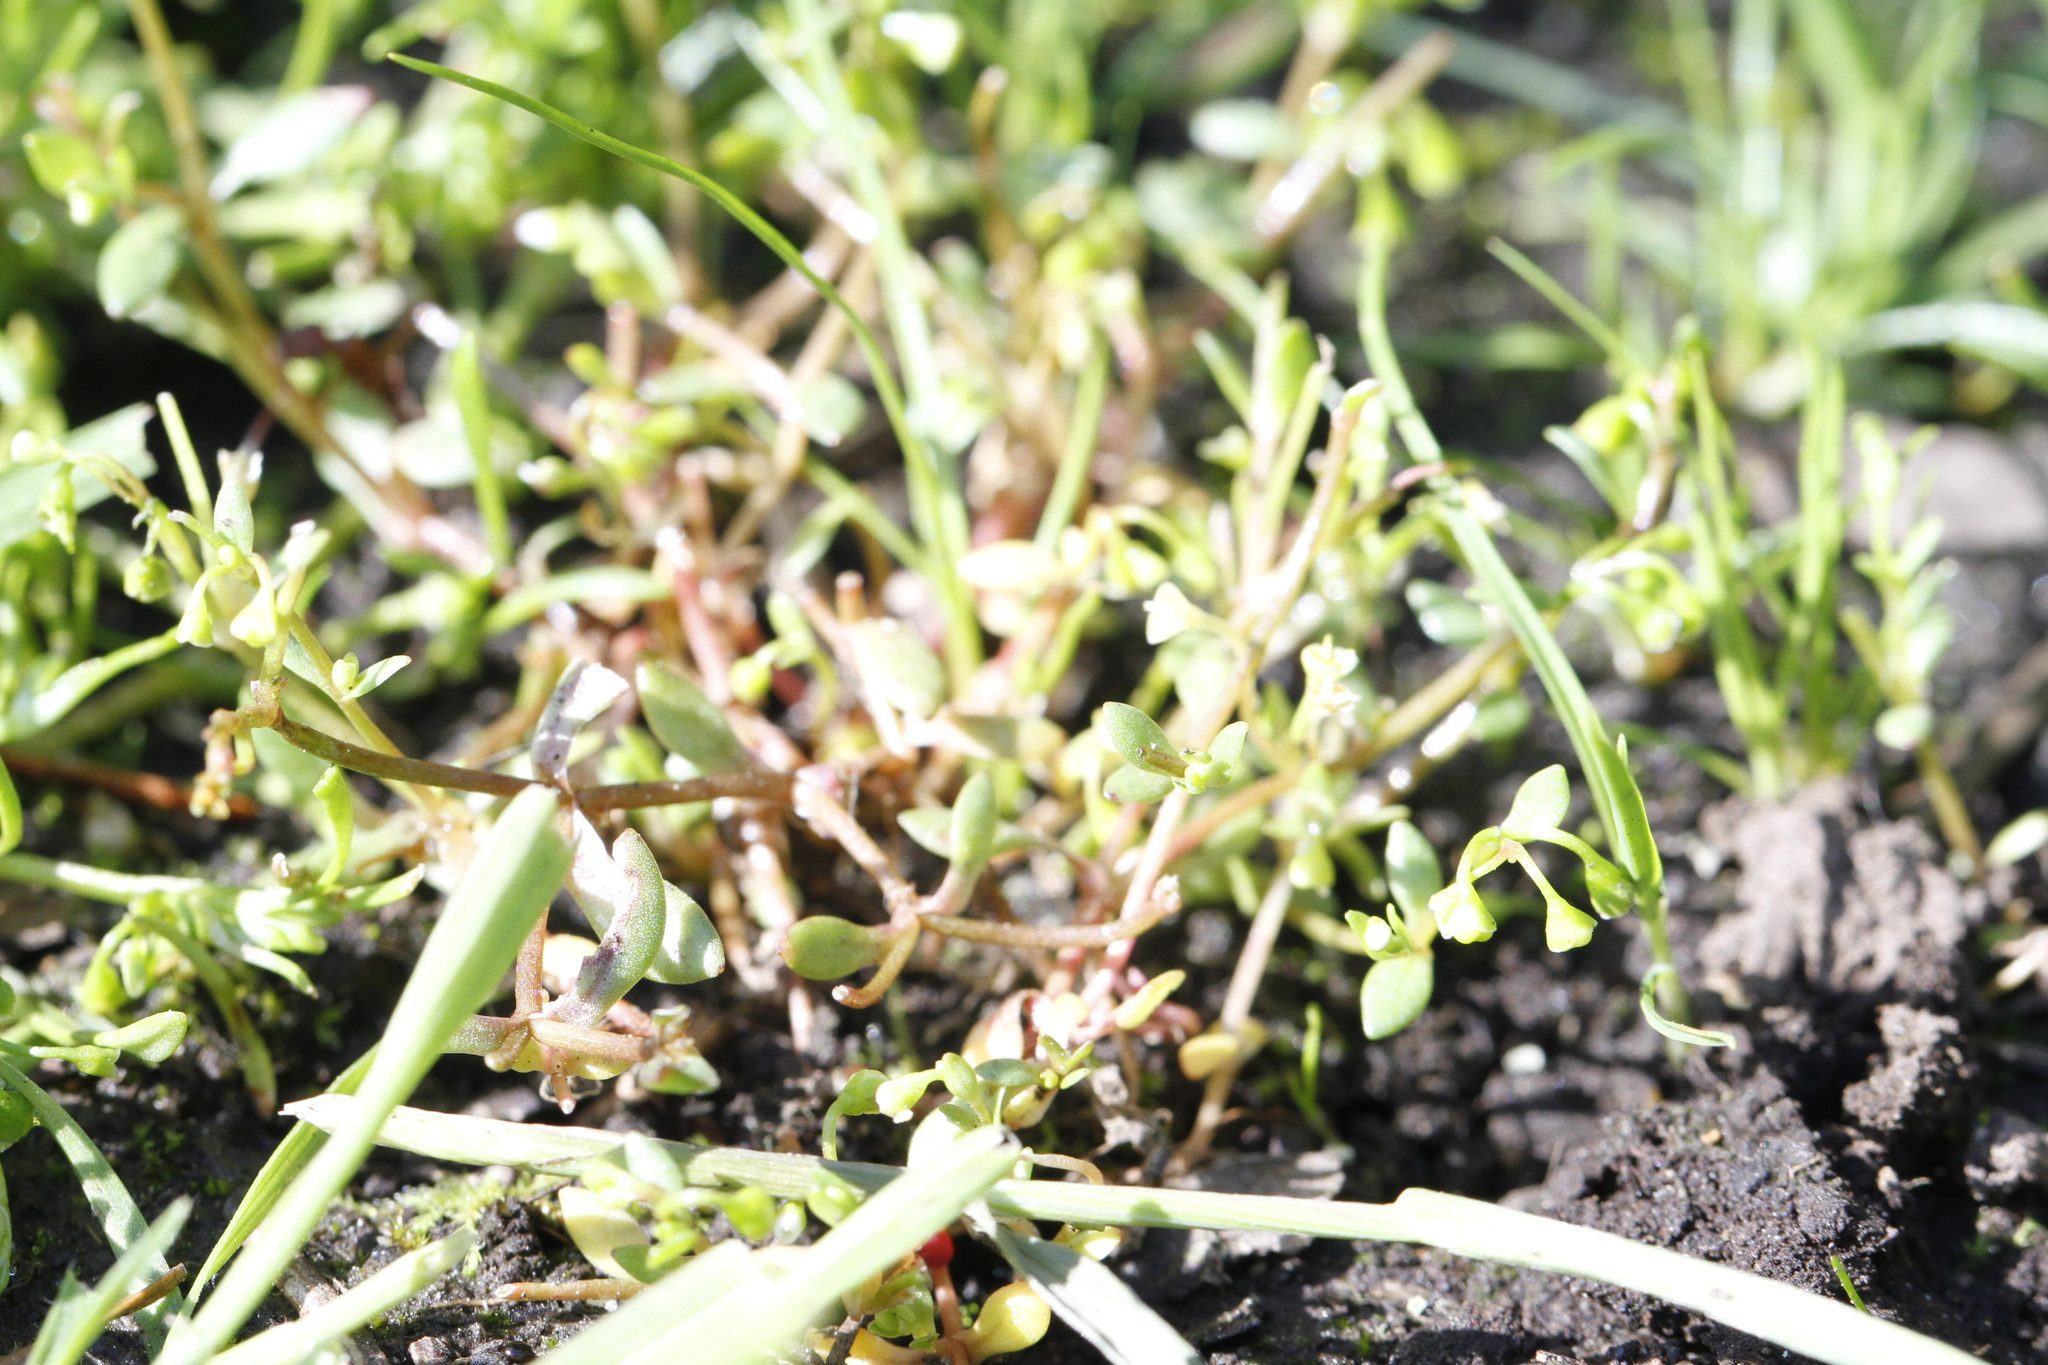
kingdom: Plantae
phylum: Tracheophyta
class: Magnoliopsida
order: Caryophyllales
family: Montiaceae
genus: Montia
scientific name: Montia fontana
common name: Blinks
